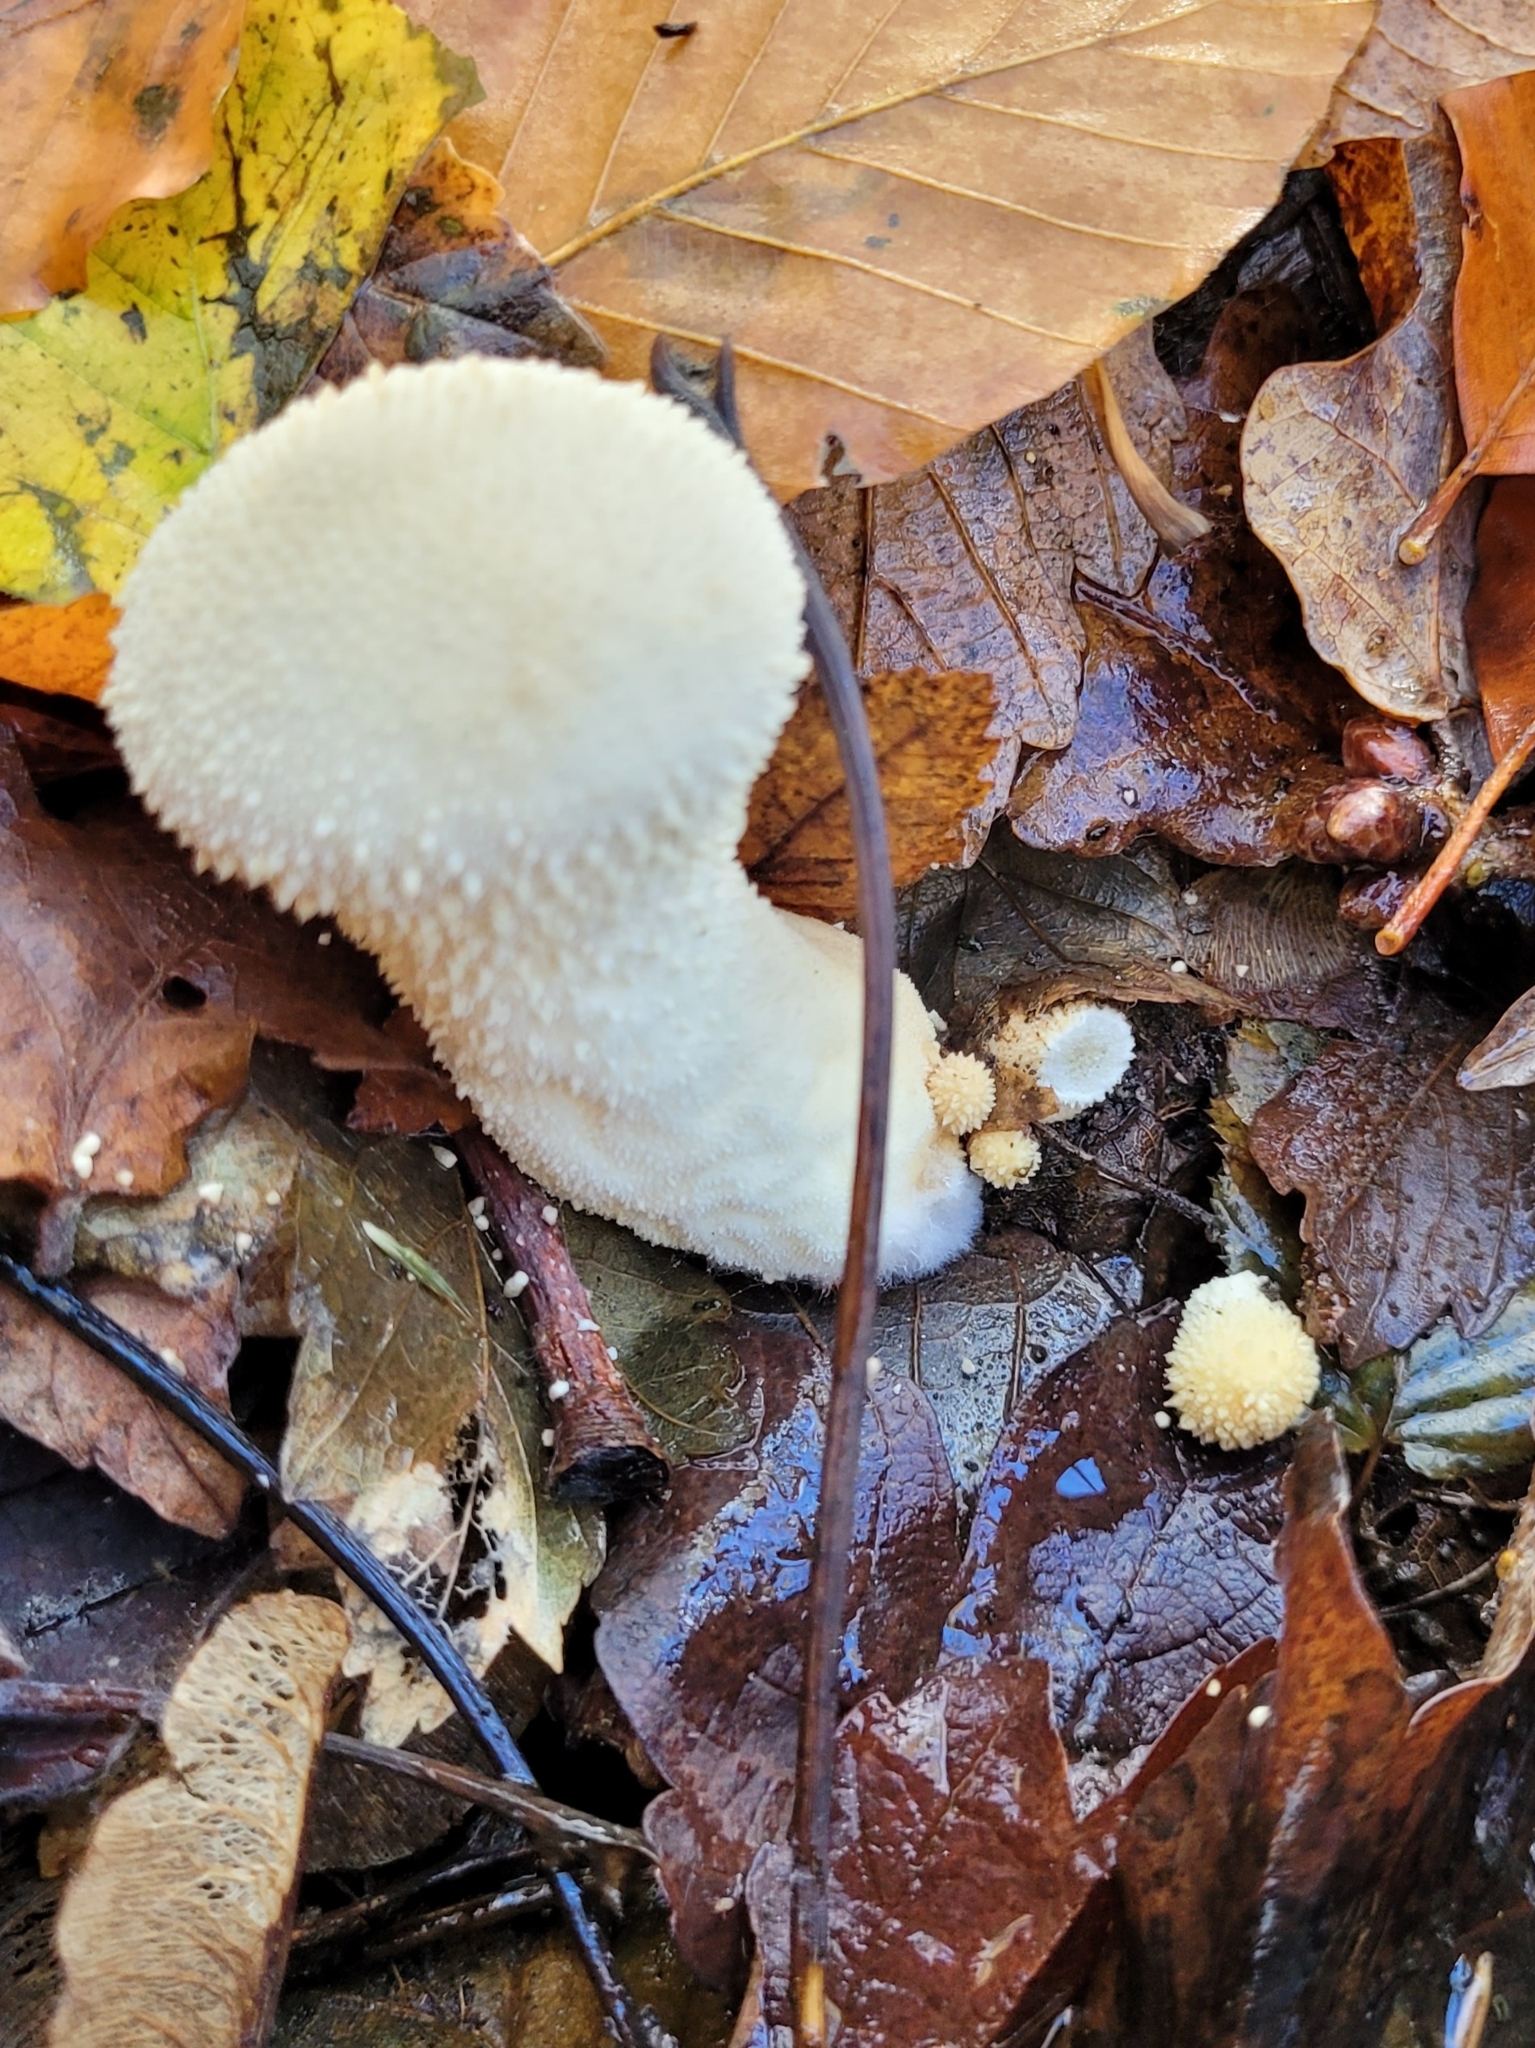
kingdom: Fungi
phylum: Basidiomycota
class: Agaricomycetes
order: Agaricales
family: Lycoperdaceae
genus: Lycoperdon
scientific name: Lycoperdon perlatum
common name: Common puffball
